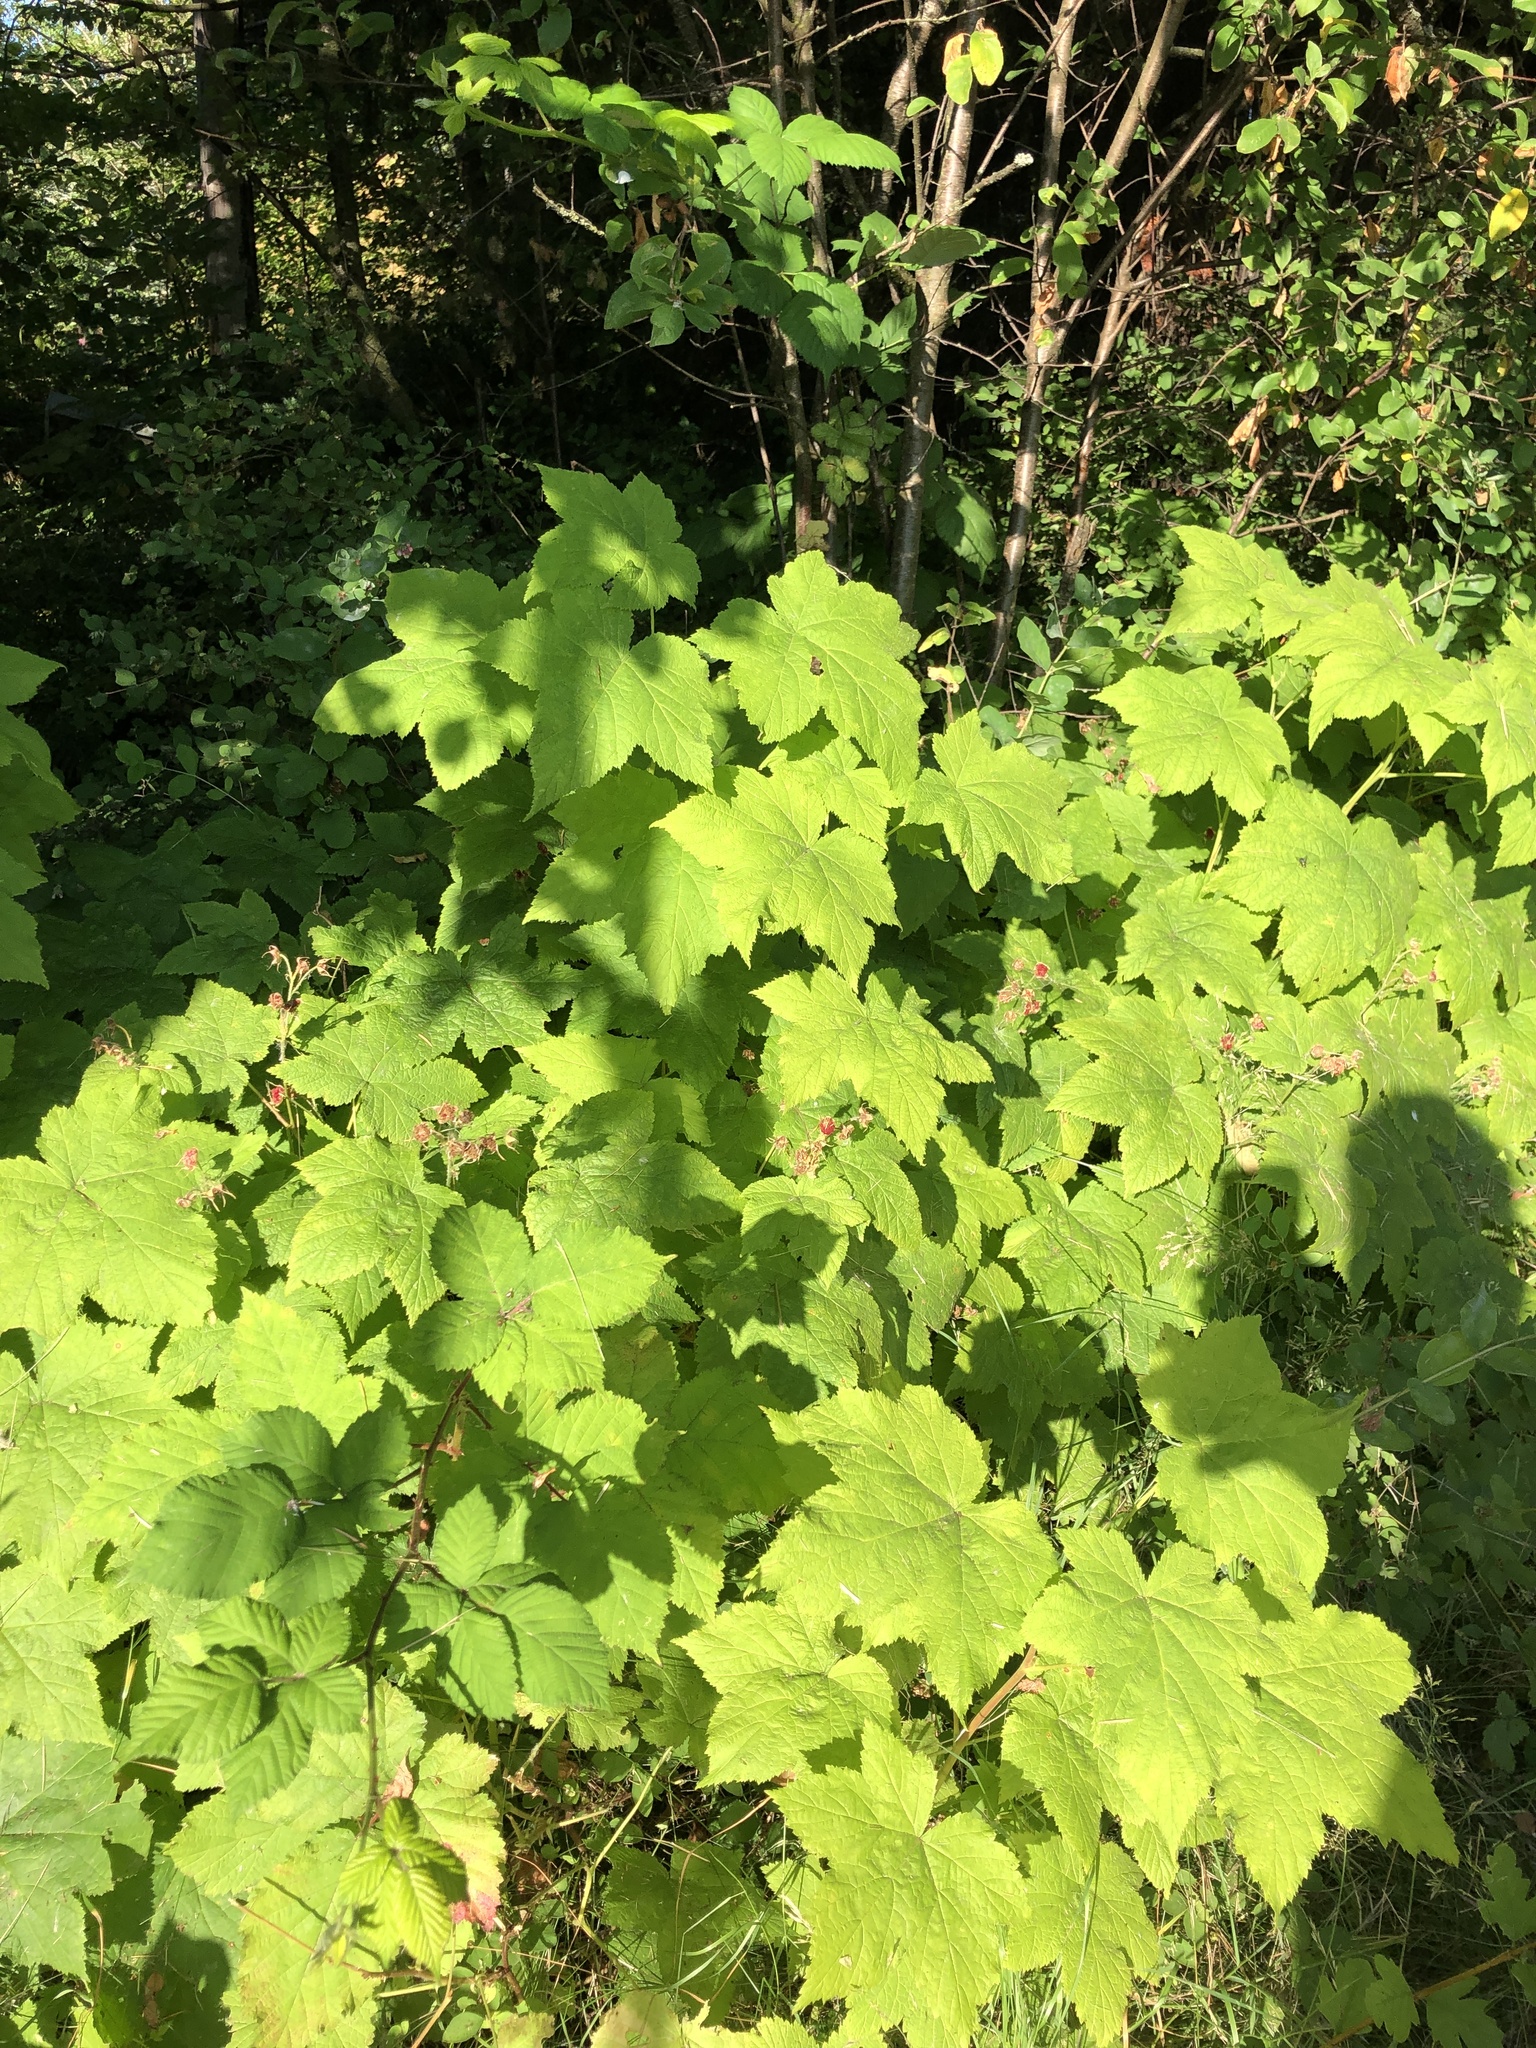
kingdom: Plantae
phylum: Tracheophyta
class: Magnoliopsida
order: Rosales
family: Rosaceae
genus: Rubus
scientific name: Rubus parviflorus
